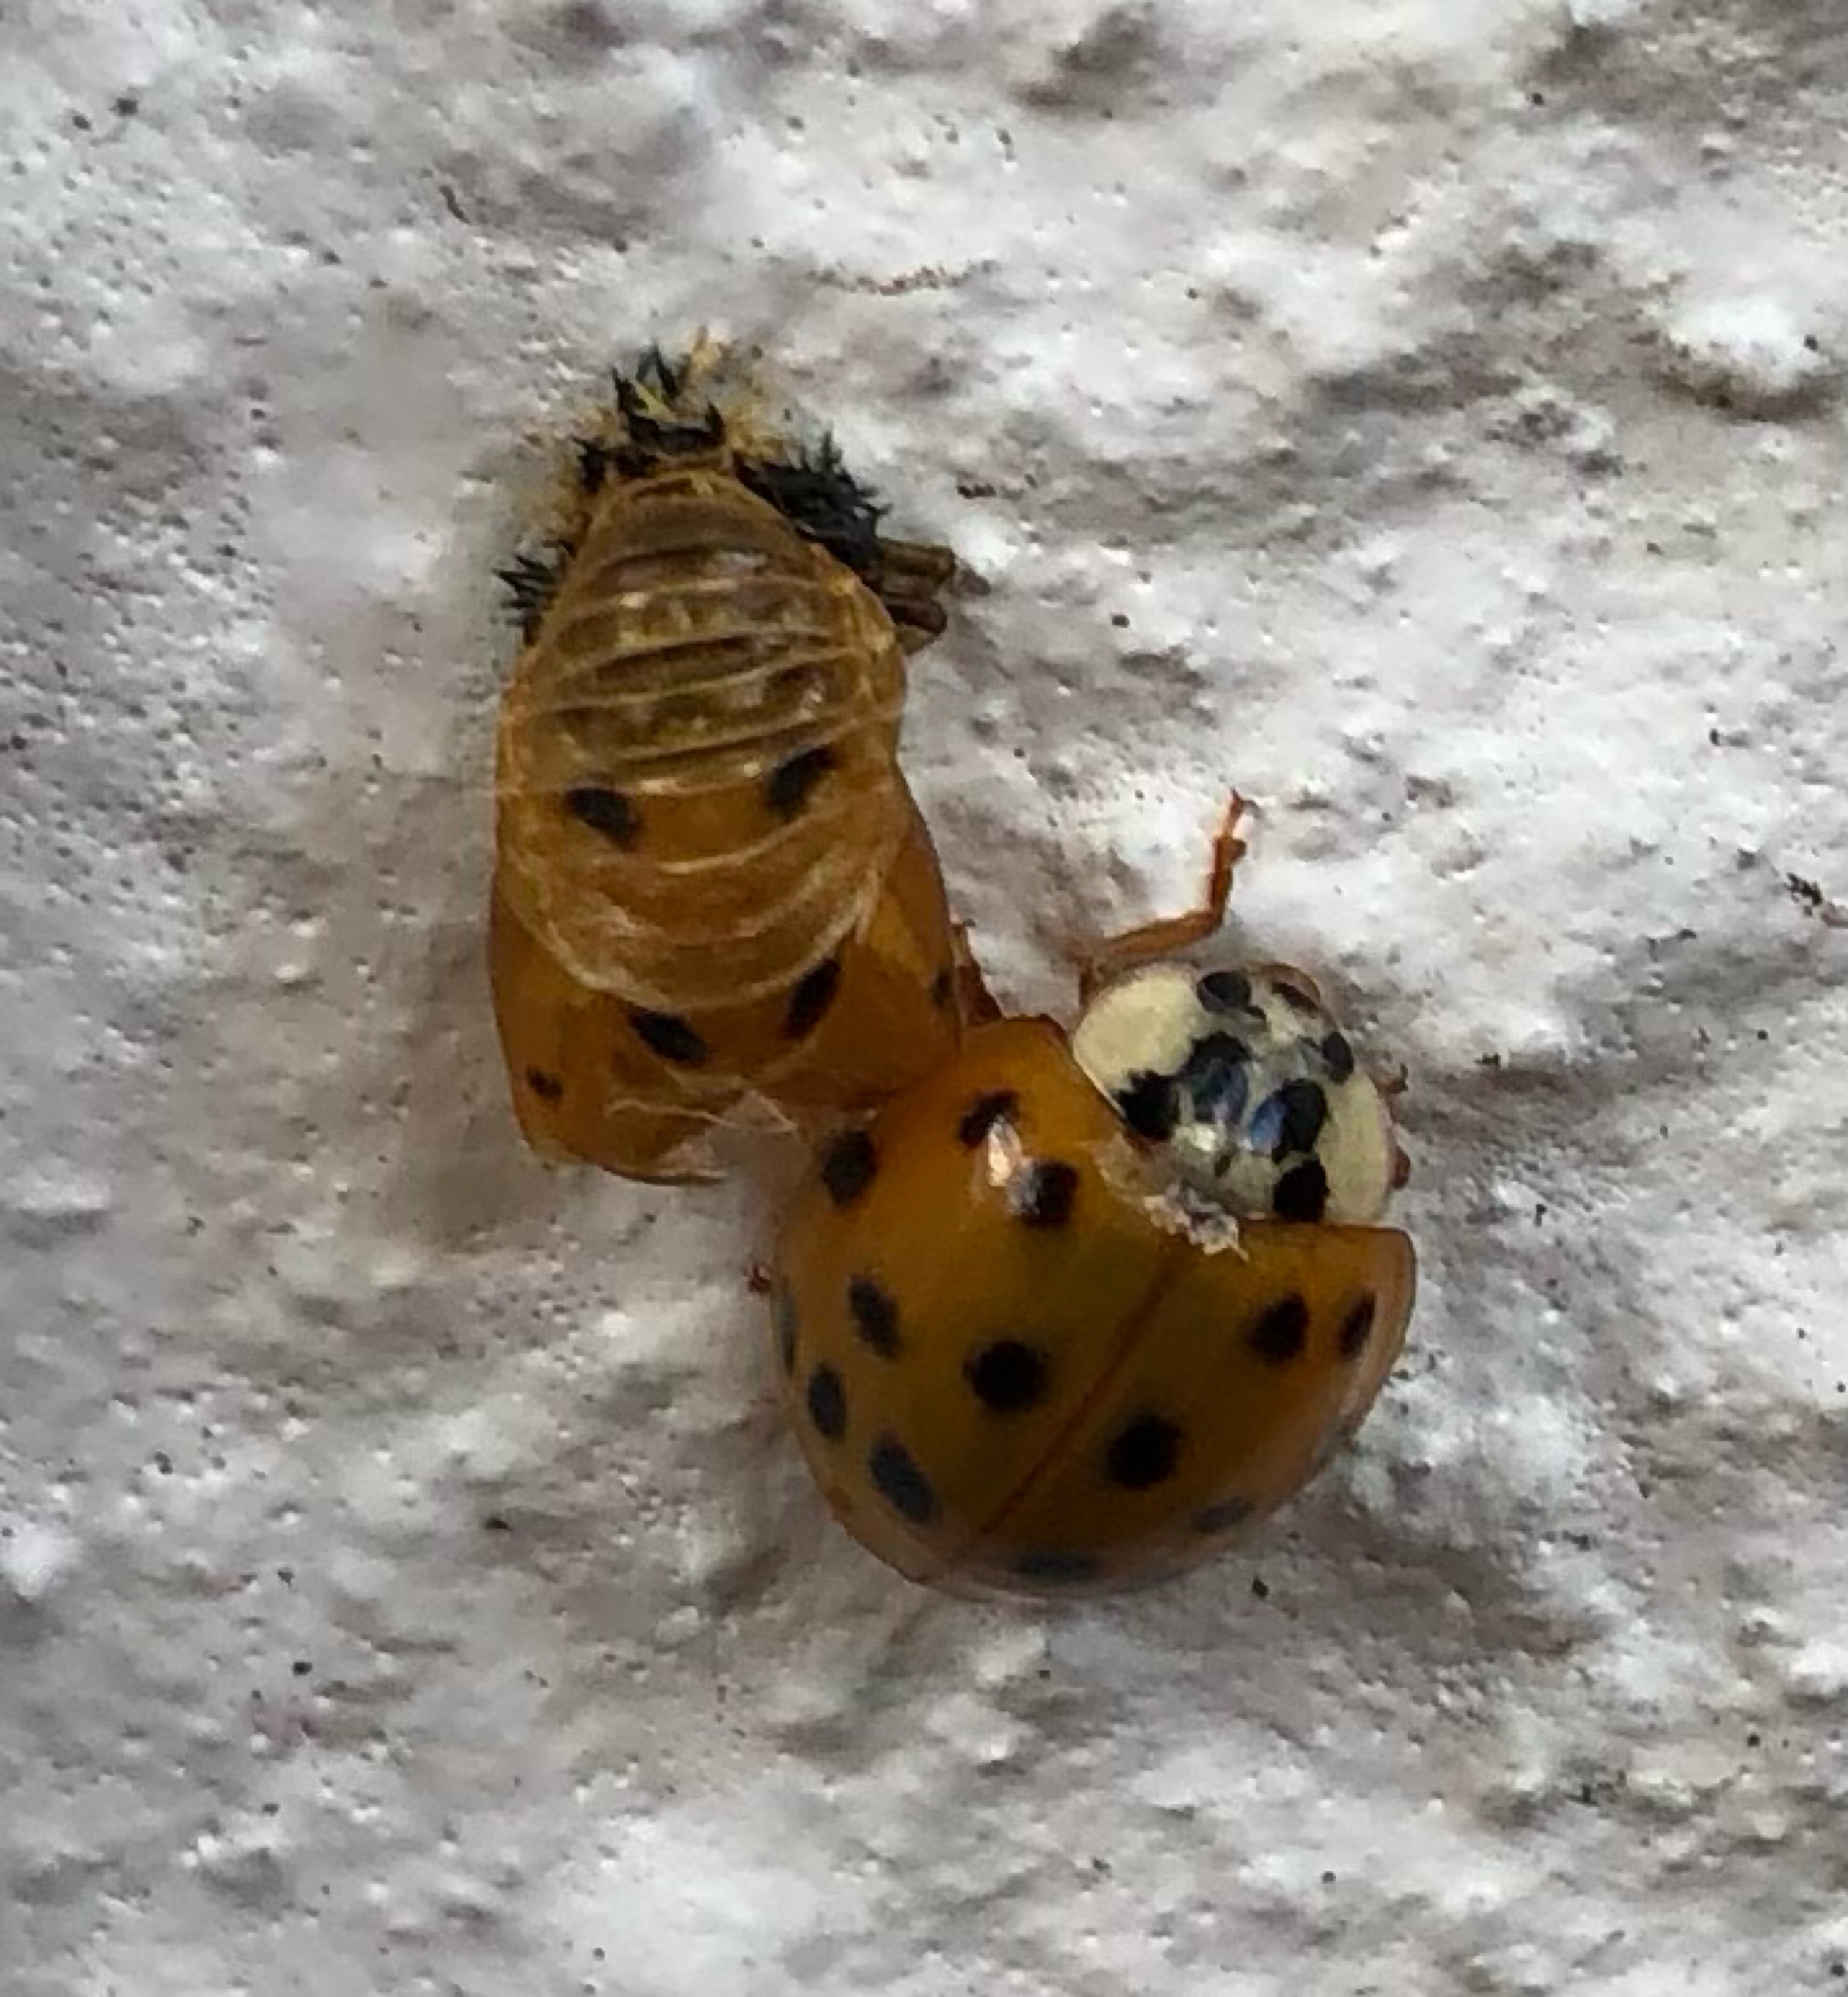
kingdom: Animalia
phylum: Arthropoda
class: Insecta
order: Coleoptera
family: Coccinellidae
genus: Harmonia
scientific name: Harmonia axyridis
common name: Harlequin ladybird
